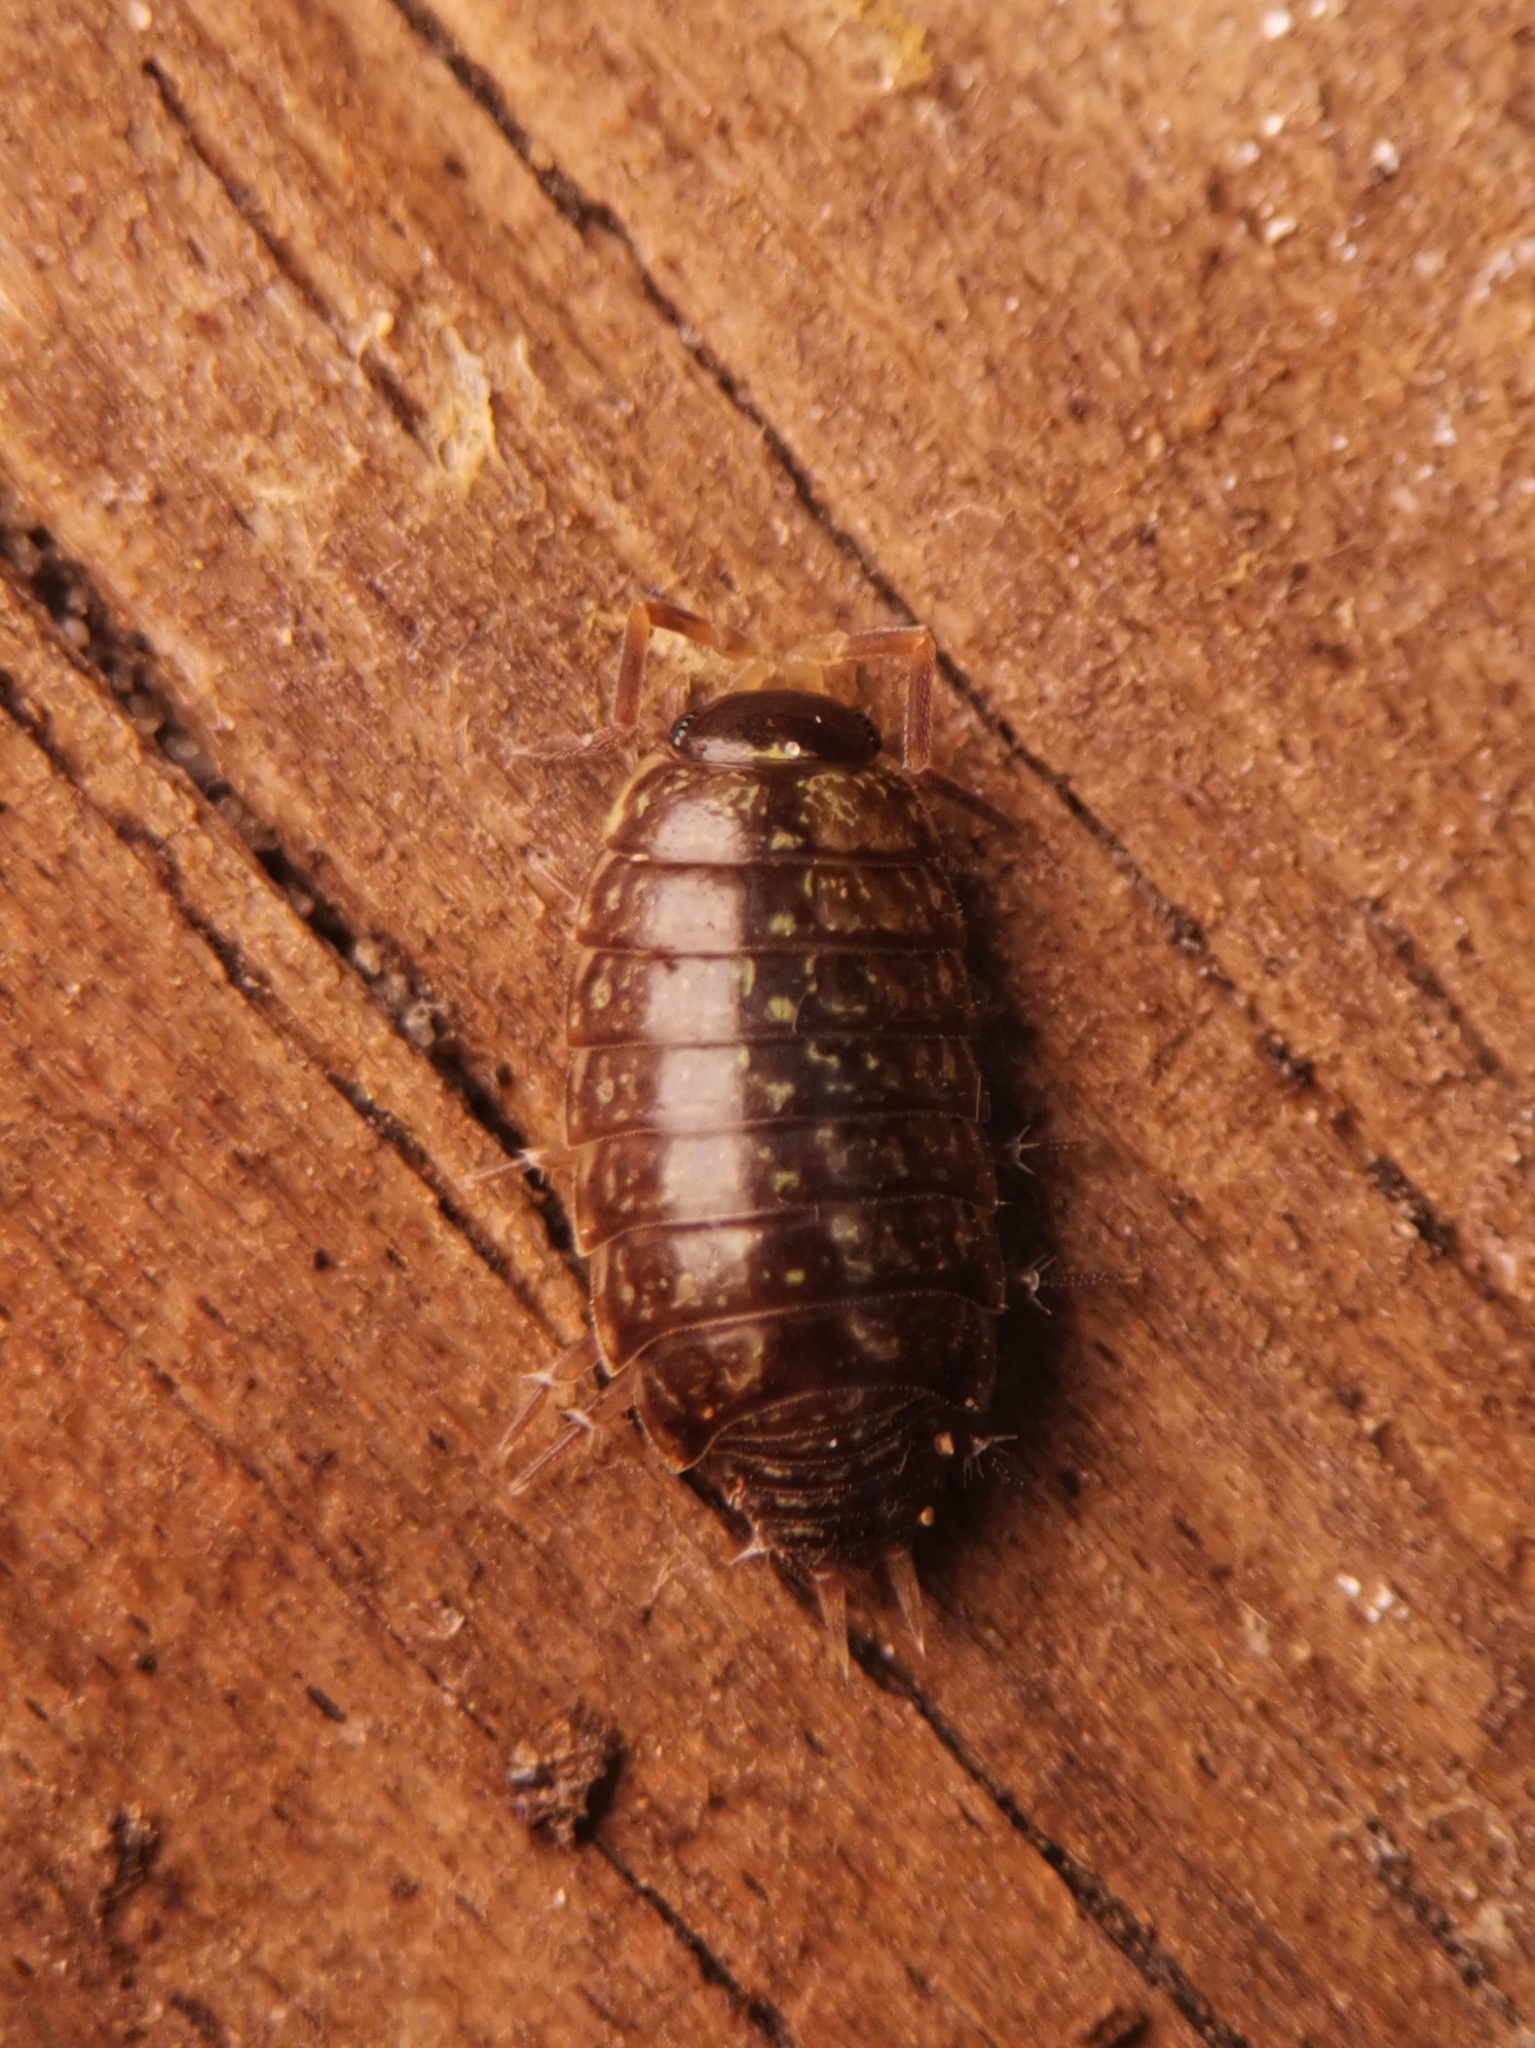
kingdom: Animalia
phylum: Arthropoda
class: Malacostraca
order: Isopoda
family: Philosciidae
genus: Philoscia
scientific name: Philoscia muscorum
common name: Common striped woodlouse
